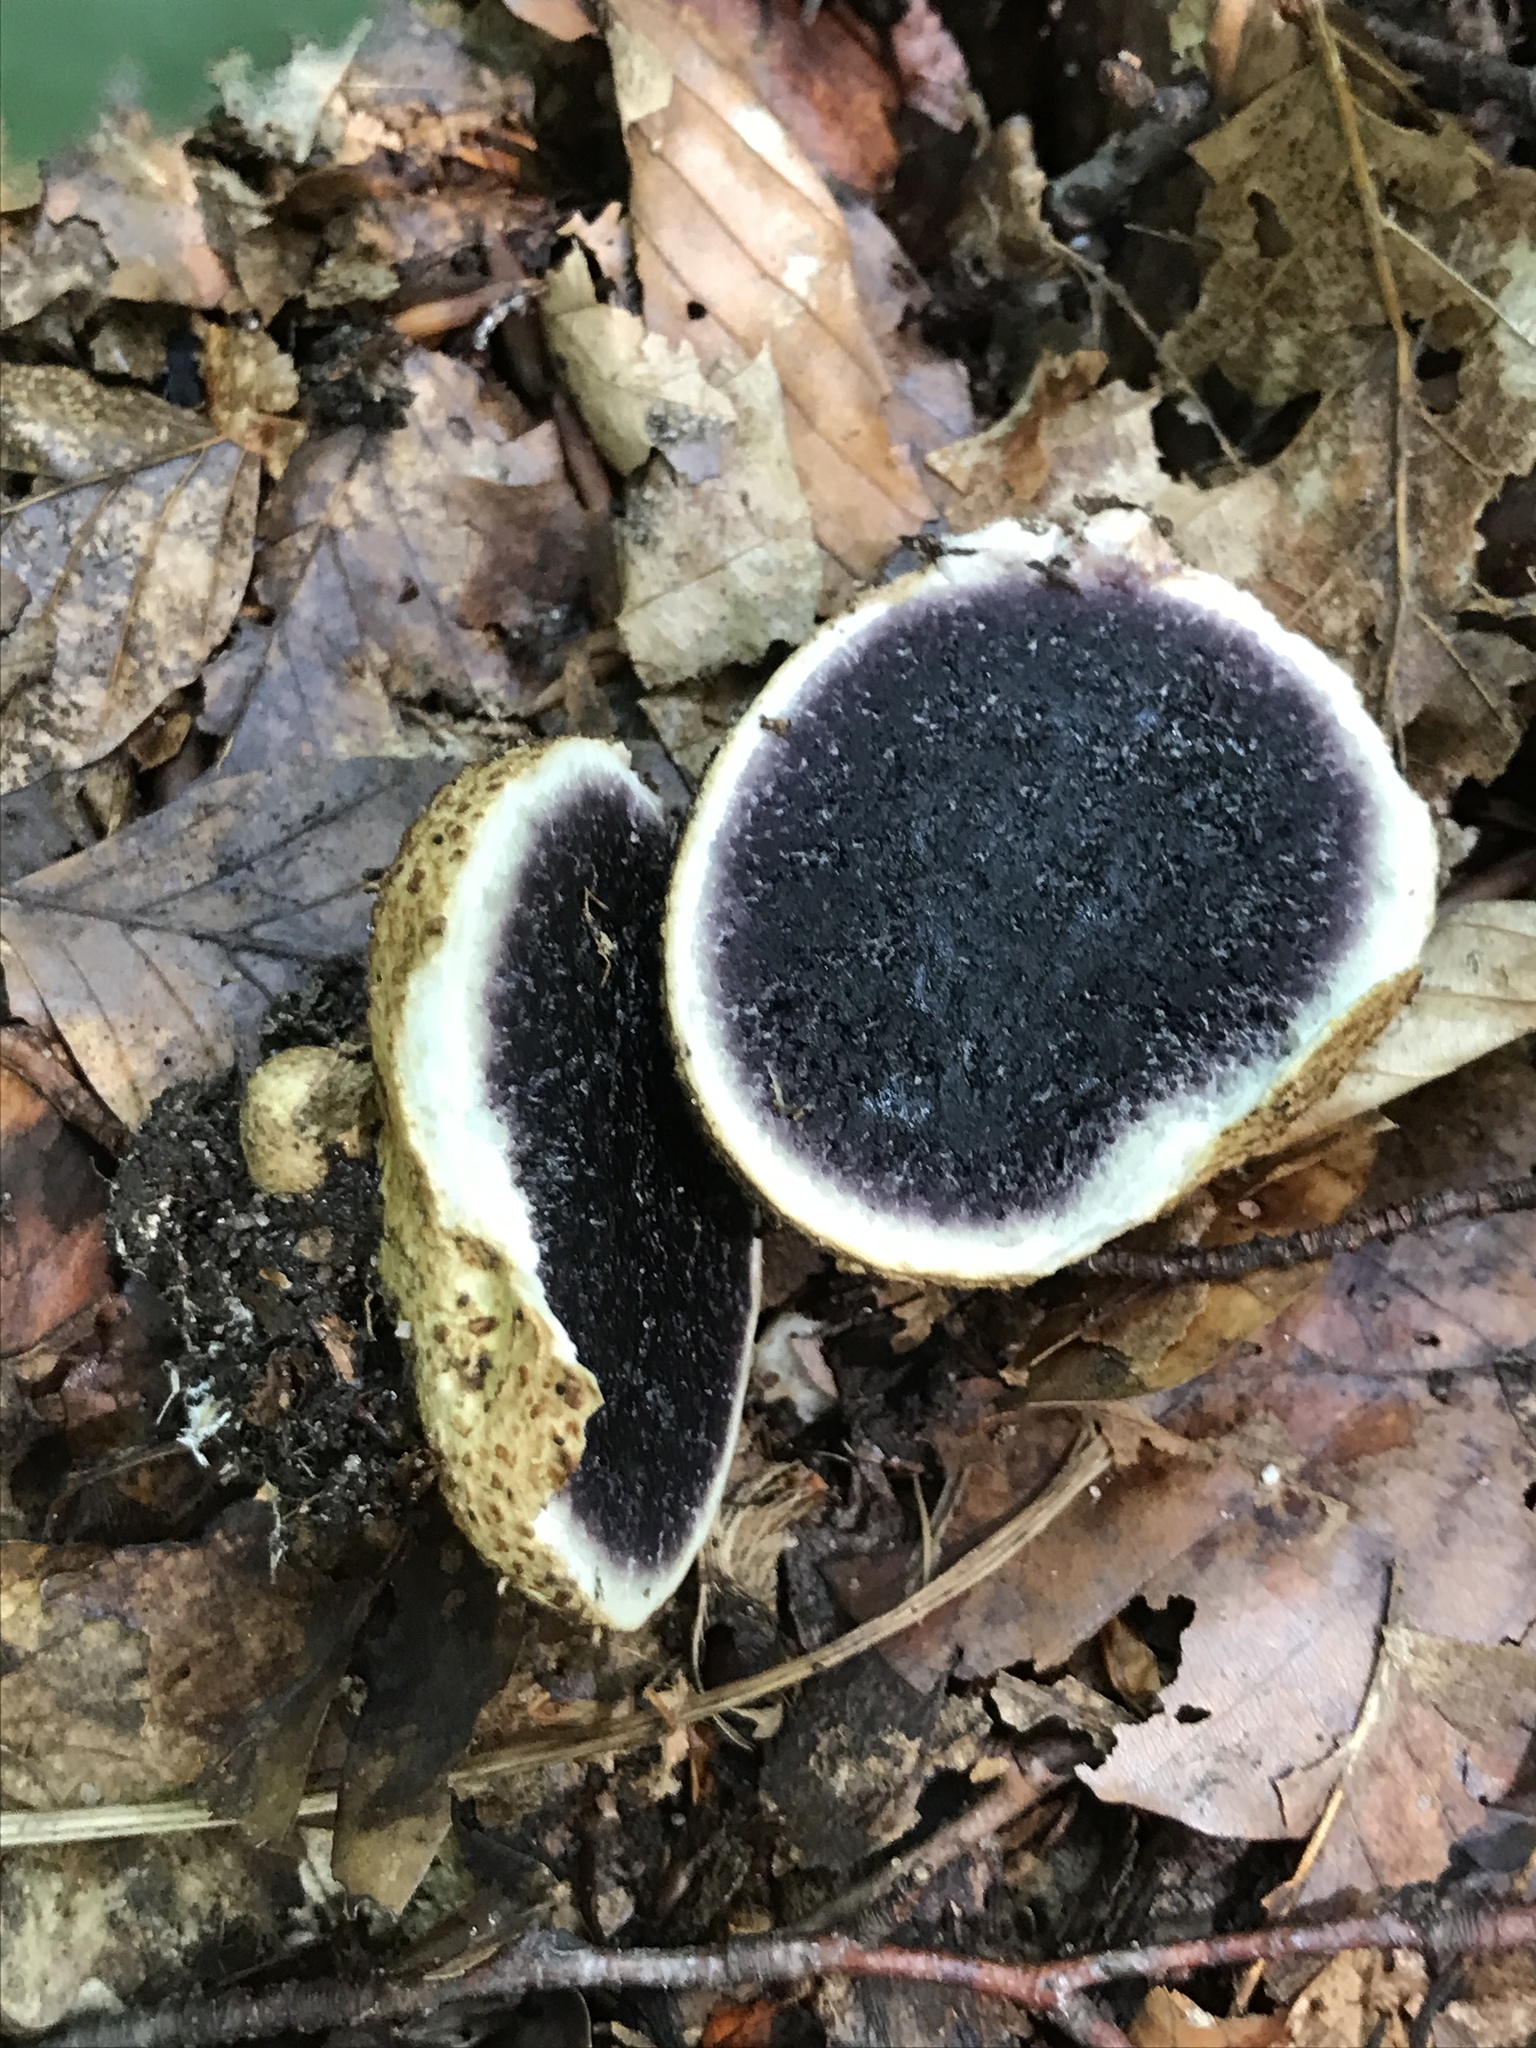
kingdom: Fungi
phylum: Basidiomycota
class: Agaricomycetes
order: Boletales
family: Sclerodermataceae
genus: Scleroderma
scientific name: Scleroderma citrinum
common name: Common earthball
